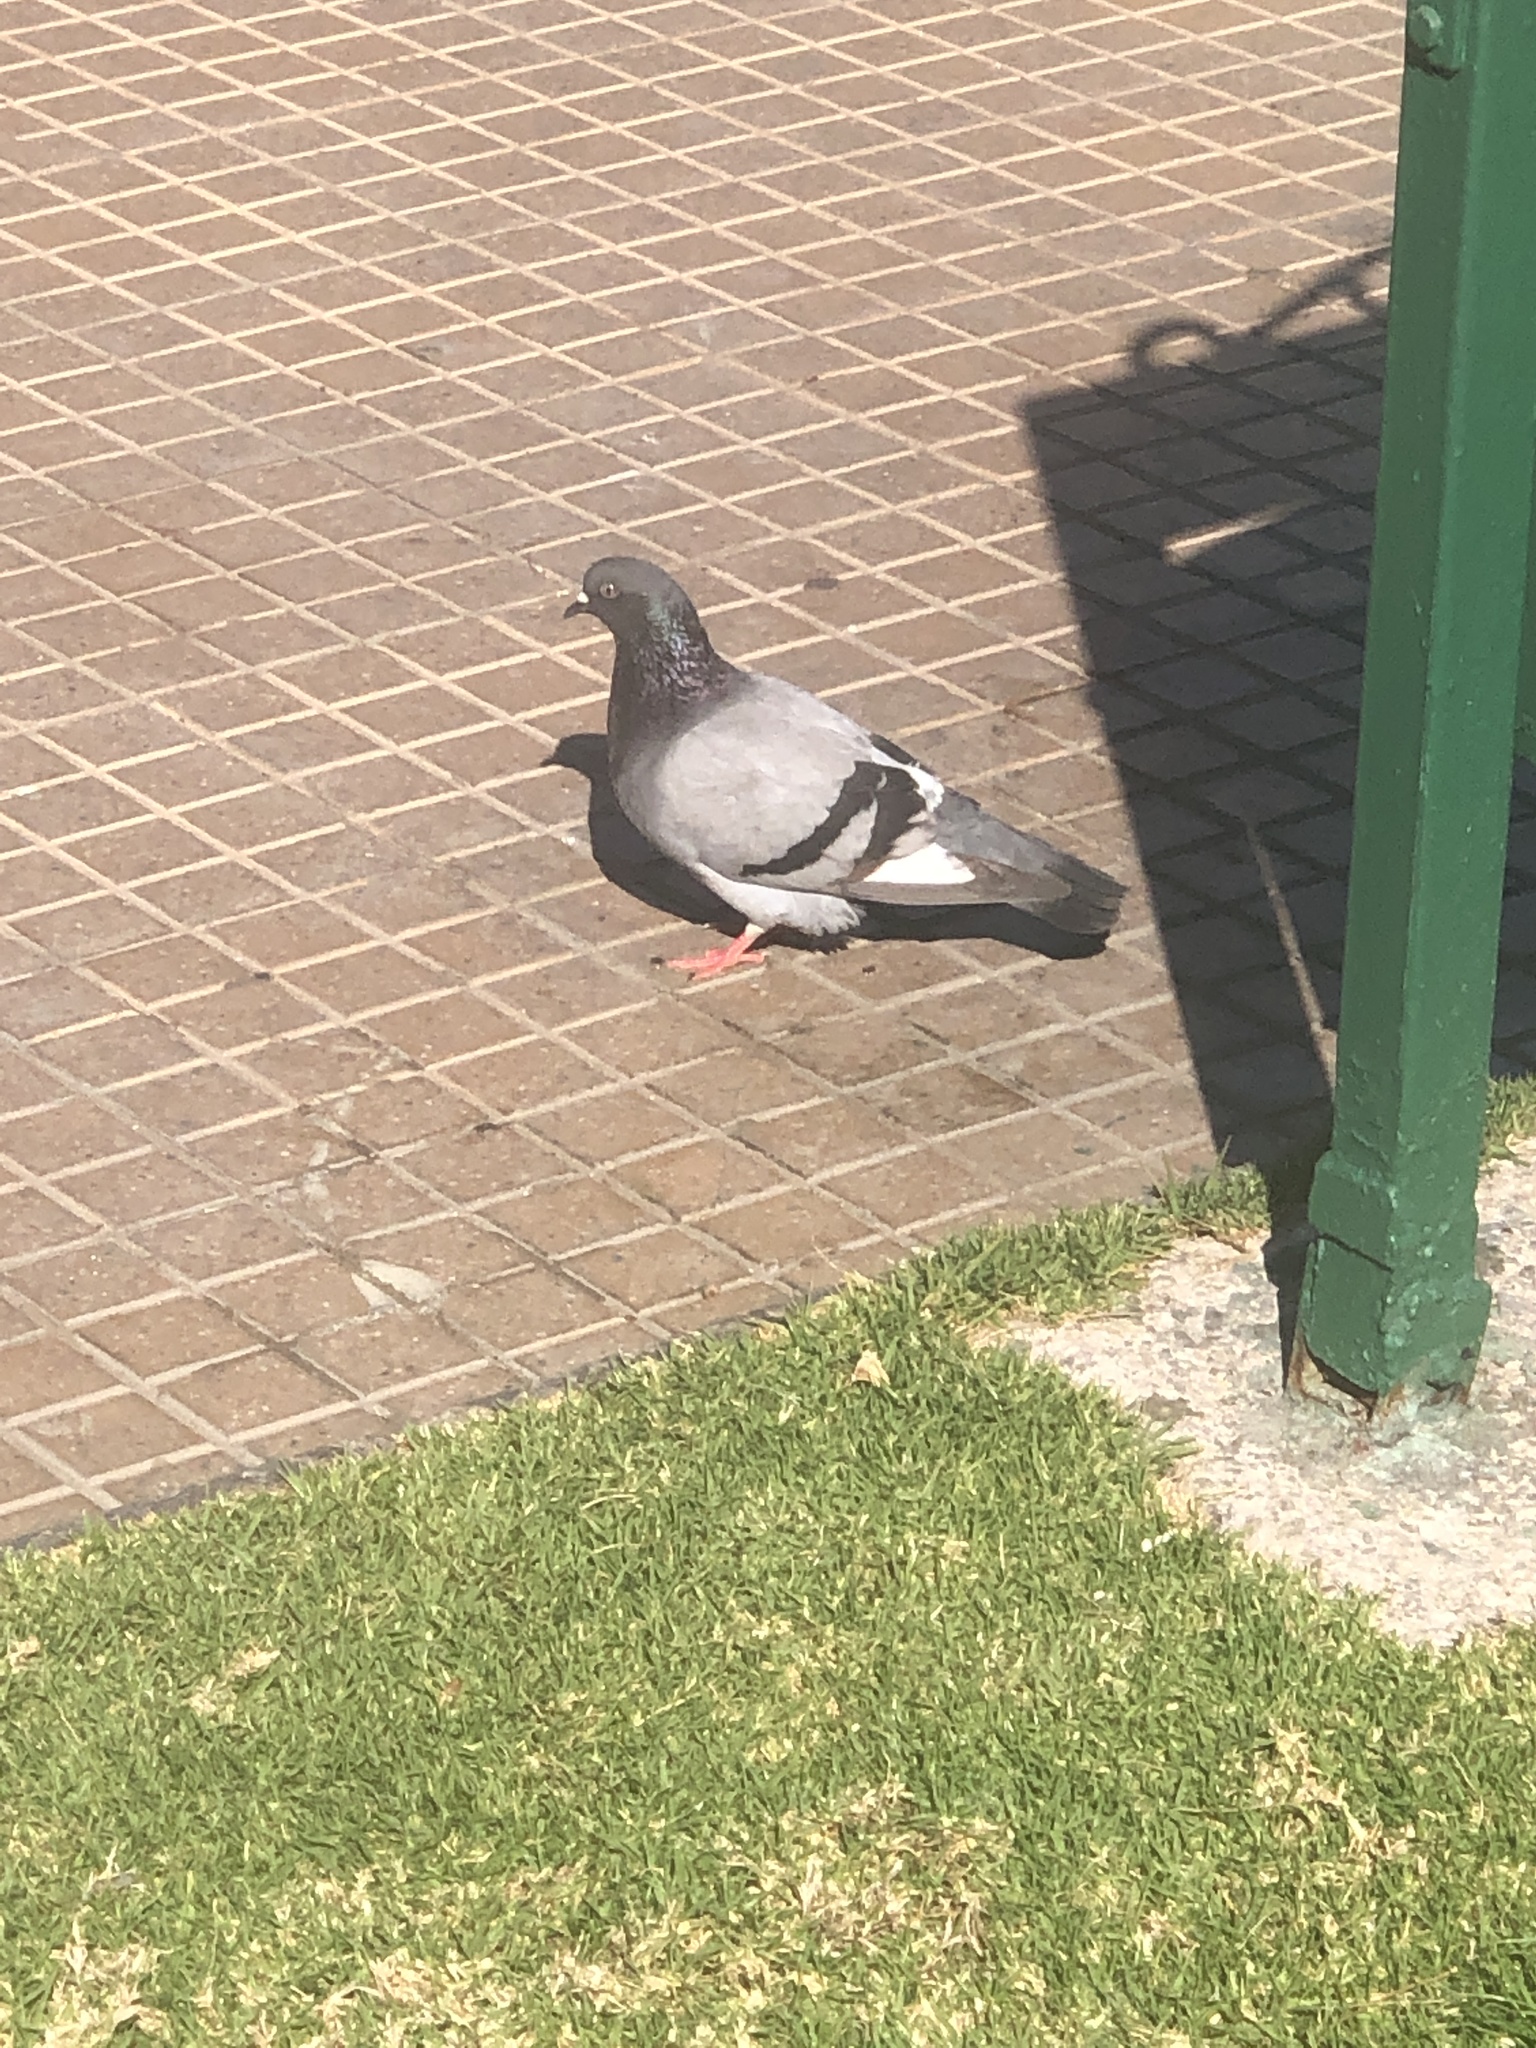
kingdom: Animalia
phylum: Chordata
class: Aves
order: Columbiformes
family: Columbidae
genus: Columba
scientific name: Columba livia
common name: Rock pigeon
